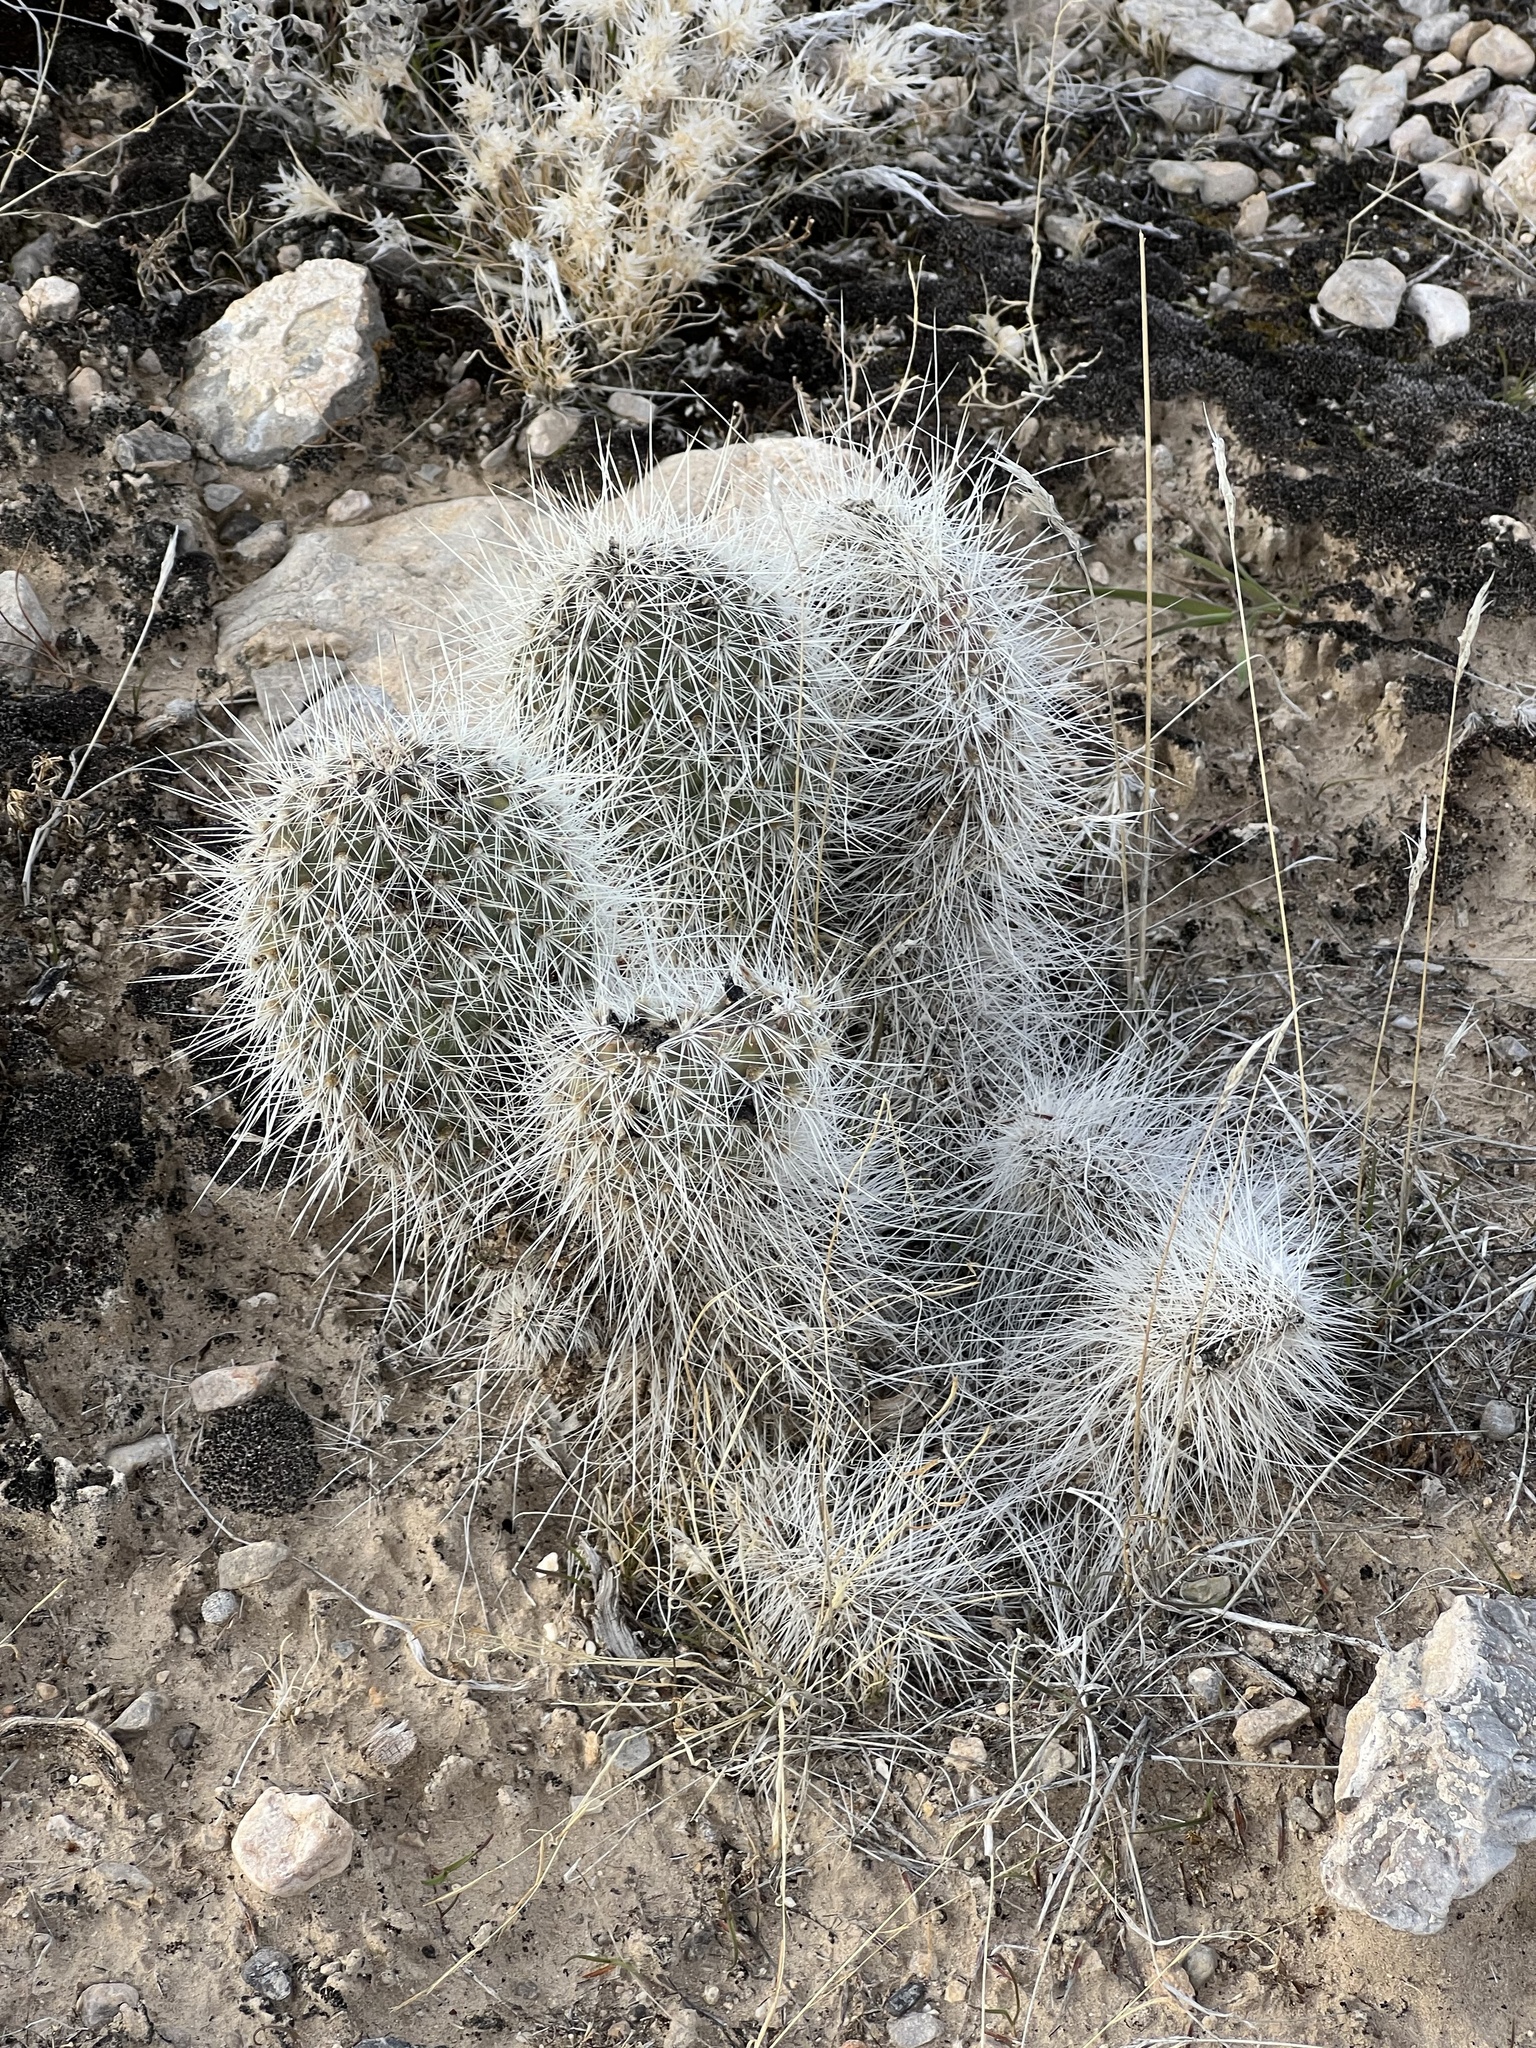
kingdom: Plantae
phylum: Tracheophyta
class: Magnoliopsida
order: Caryophyllales
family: Cactaceae
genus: Opuntia
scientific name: Opuntia polyacantha
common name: Plains prickly-pear
